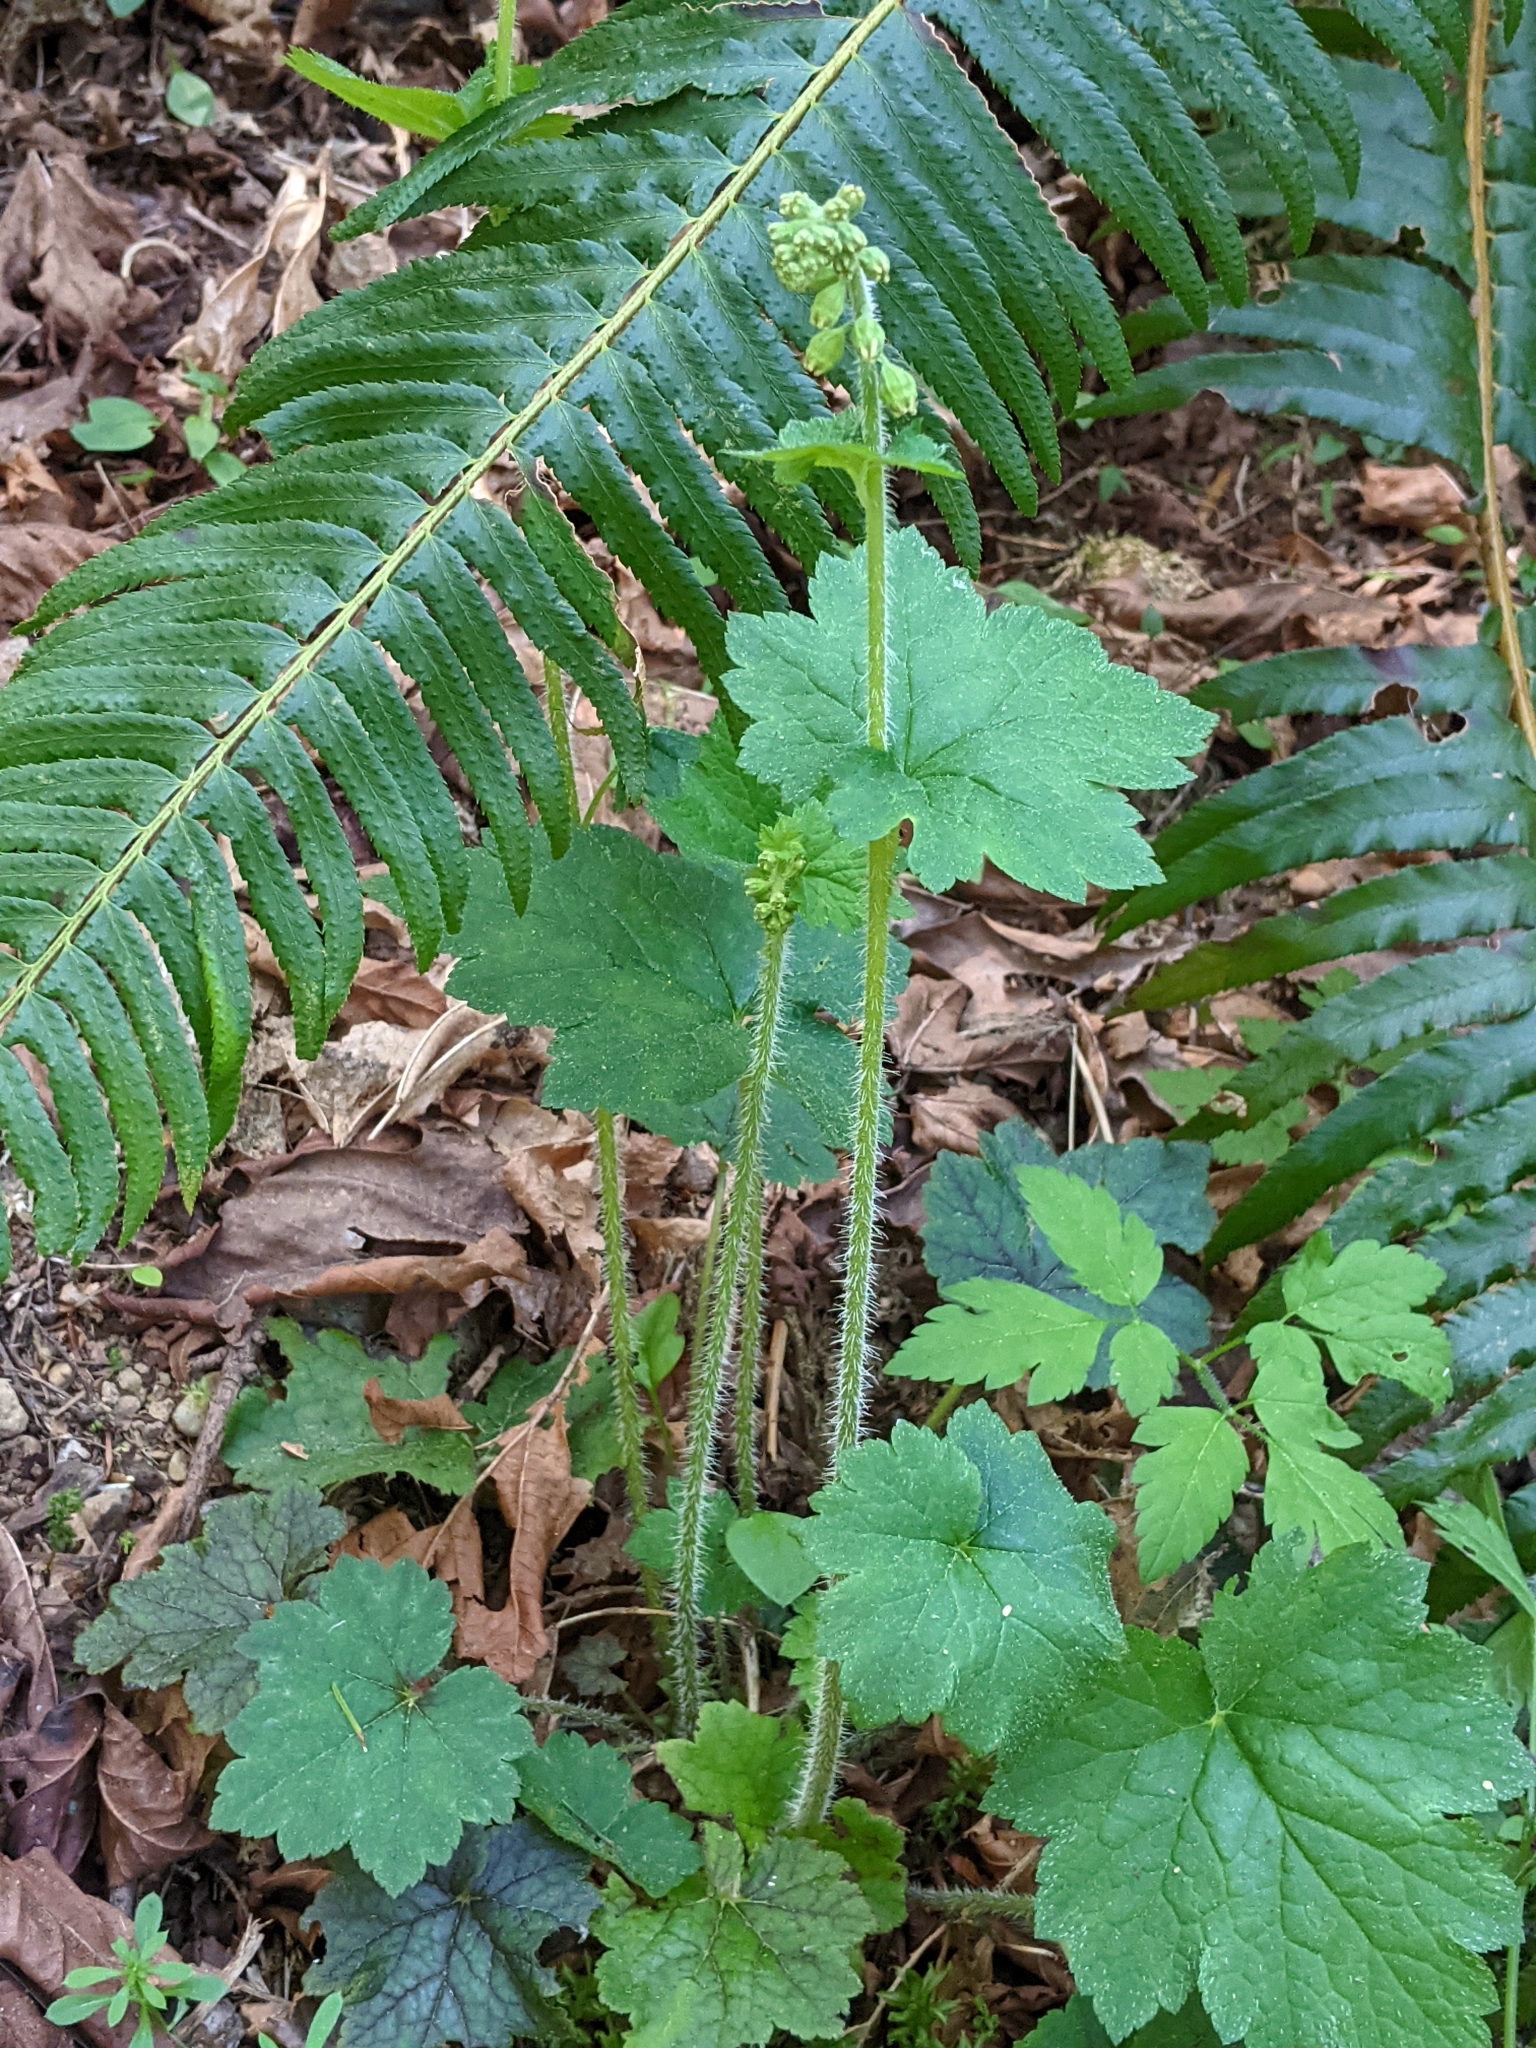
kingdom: Plantae
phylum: Tracheophyta
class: Magnoliopsida
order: Saxifragales
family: Saxifragaceae
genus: Tellima
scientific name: Tellima grandiflora
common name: Fringecups
